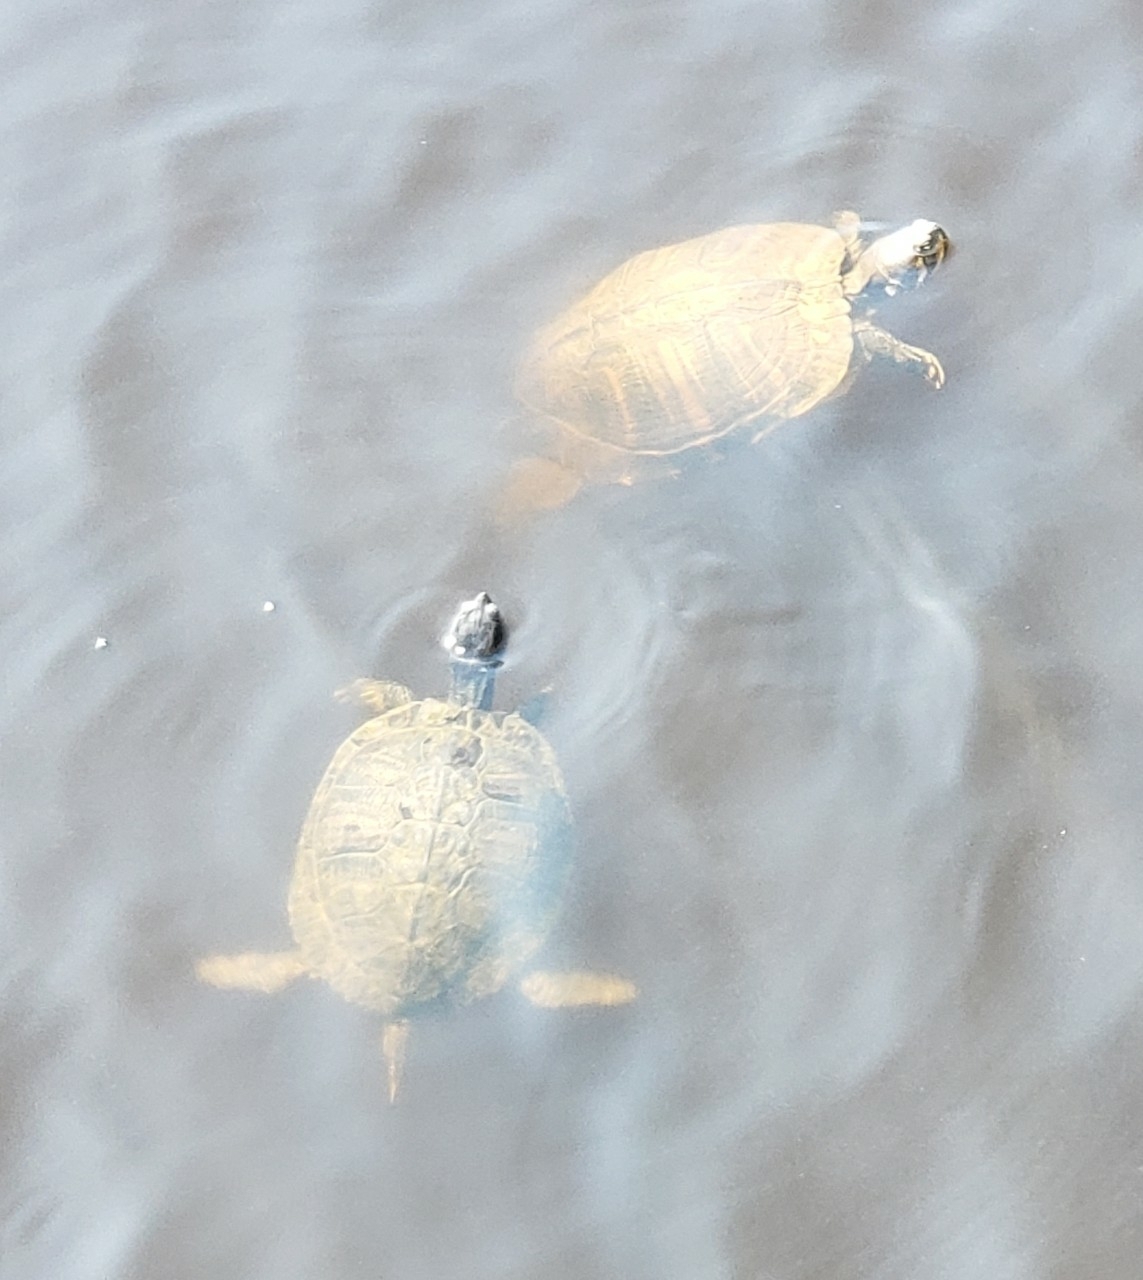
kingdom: Animalia
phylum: Chordata
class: Testudines
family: Emydidae
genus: Trachemys
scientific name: Trachemys scripta
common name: Slider
